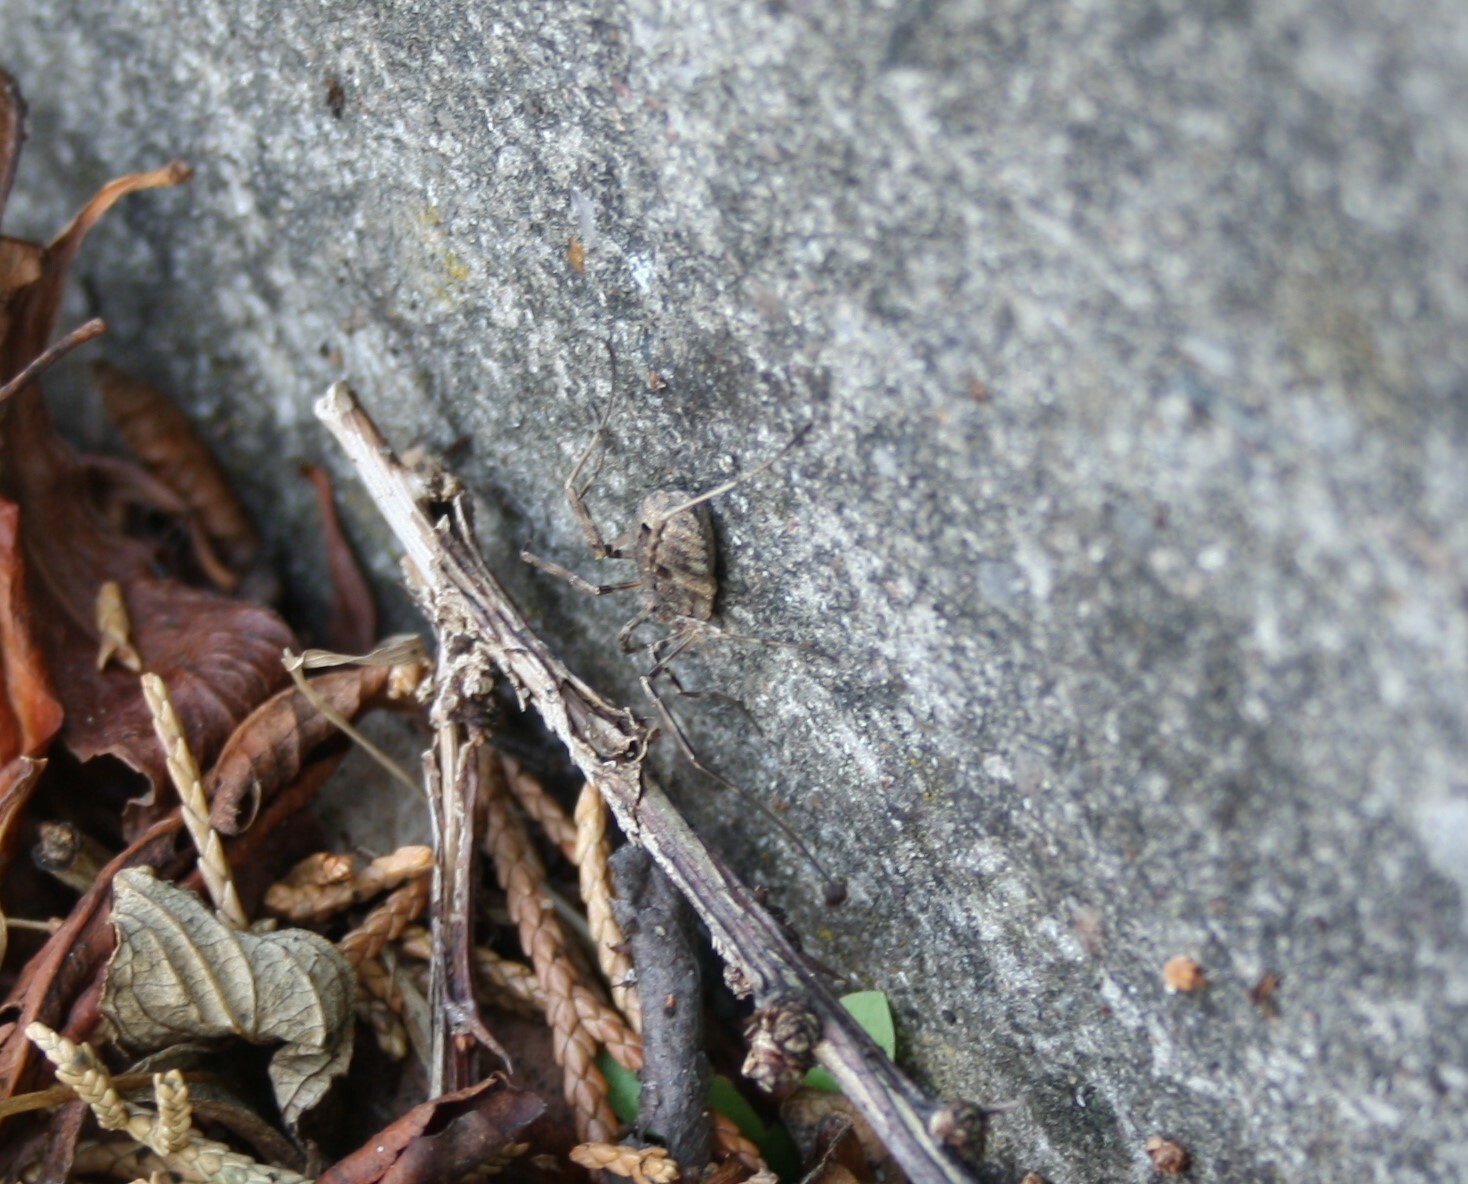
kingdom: Animalia
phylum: Arthropoda
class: Arachnida
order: Opiliones
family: Phalangiidae
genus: Odiellus
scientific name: Odiellus spinosus
